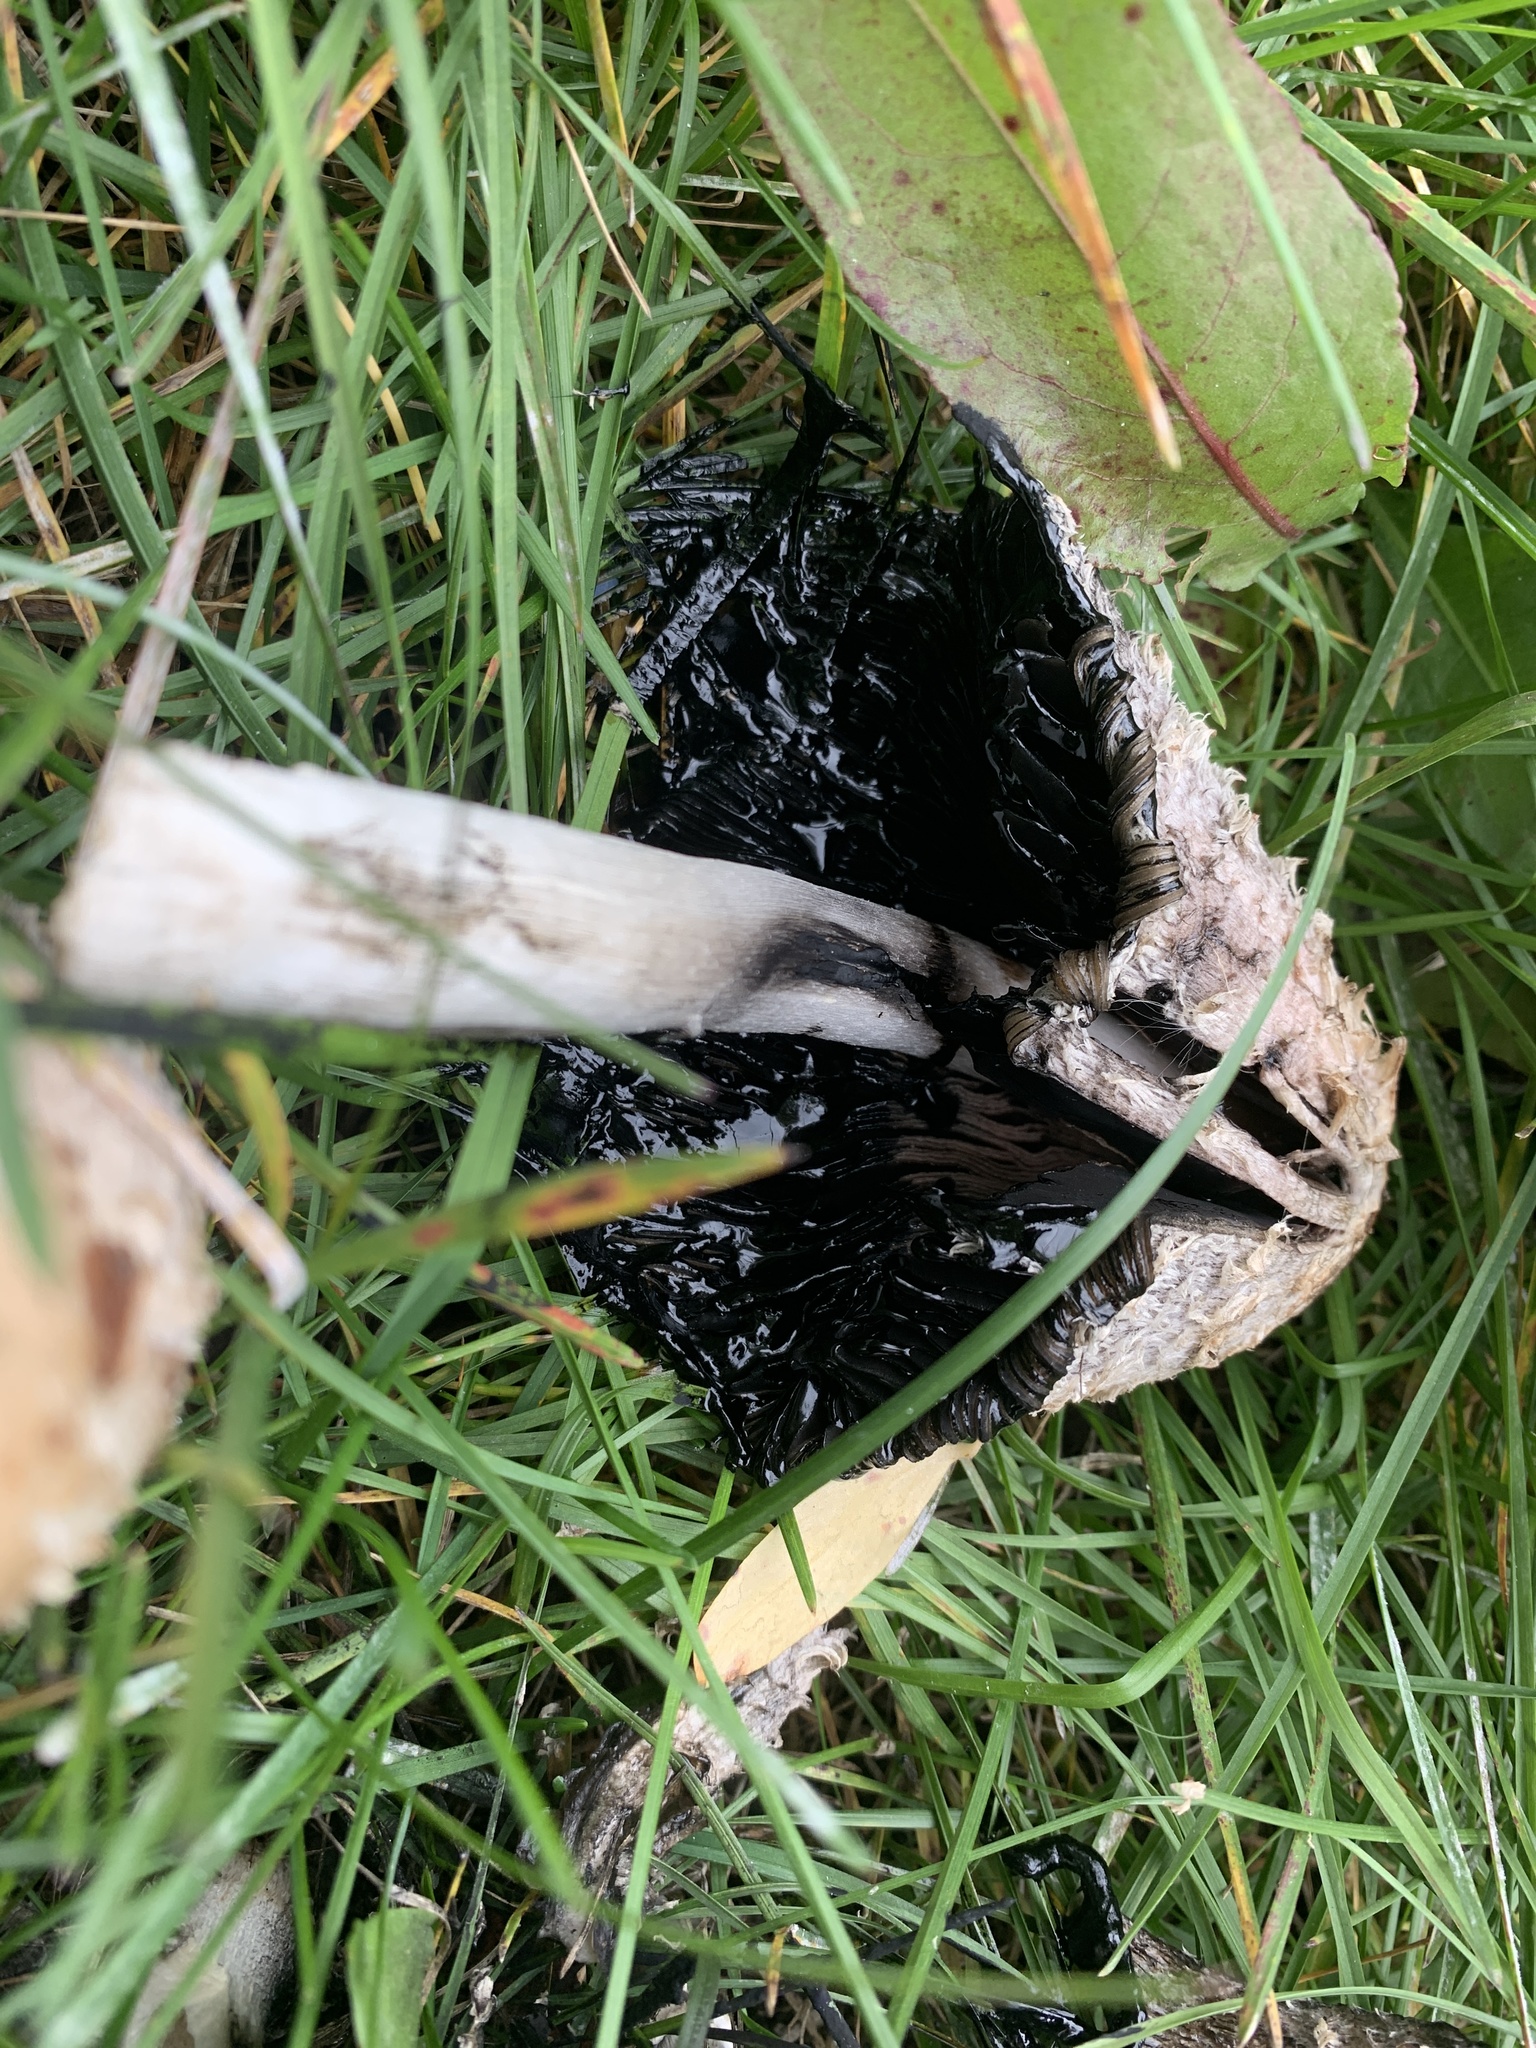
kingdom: Fungi
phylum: Basidiomycota
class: Agaricomycetes
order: Agaricales
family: Agaricaceae
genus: Coprinus
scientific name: Coprinus comatus
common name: Lawyer's wig
